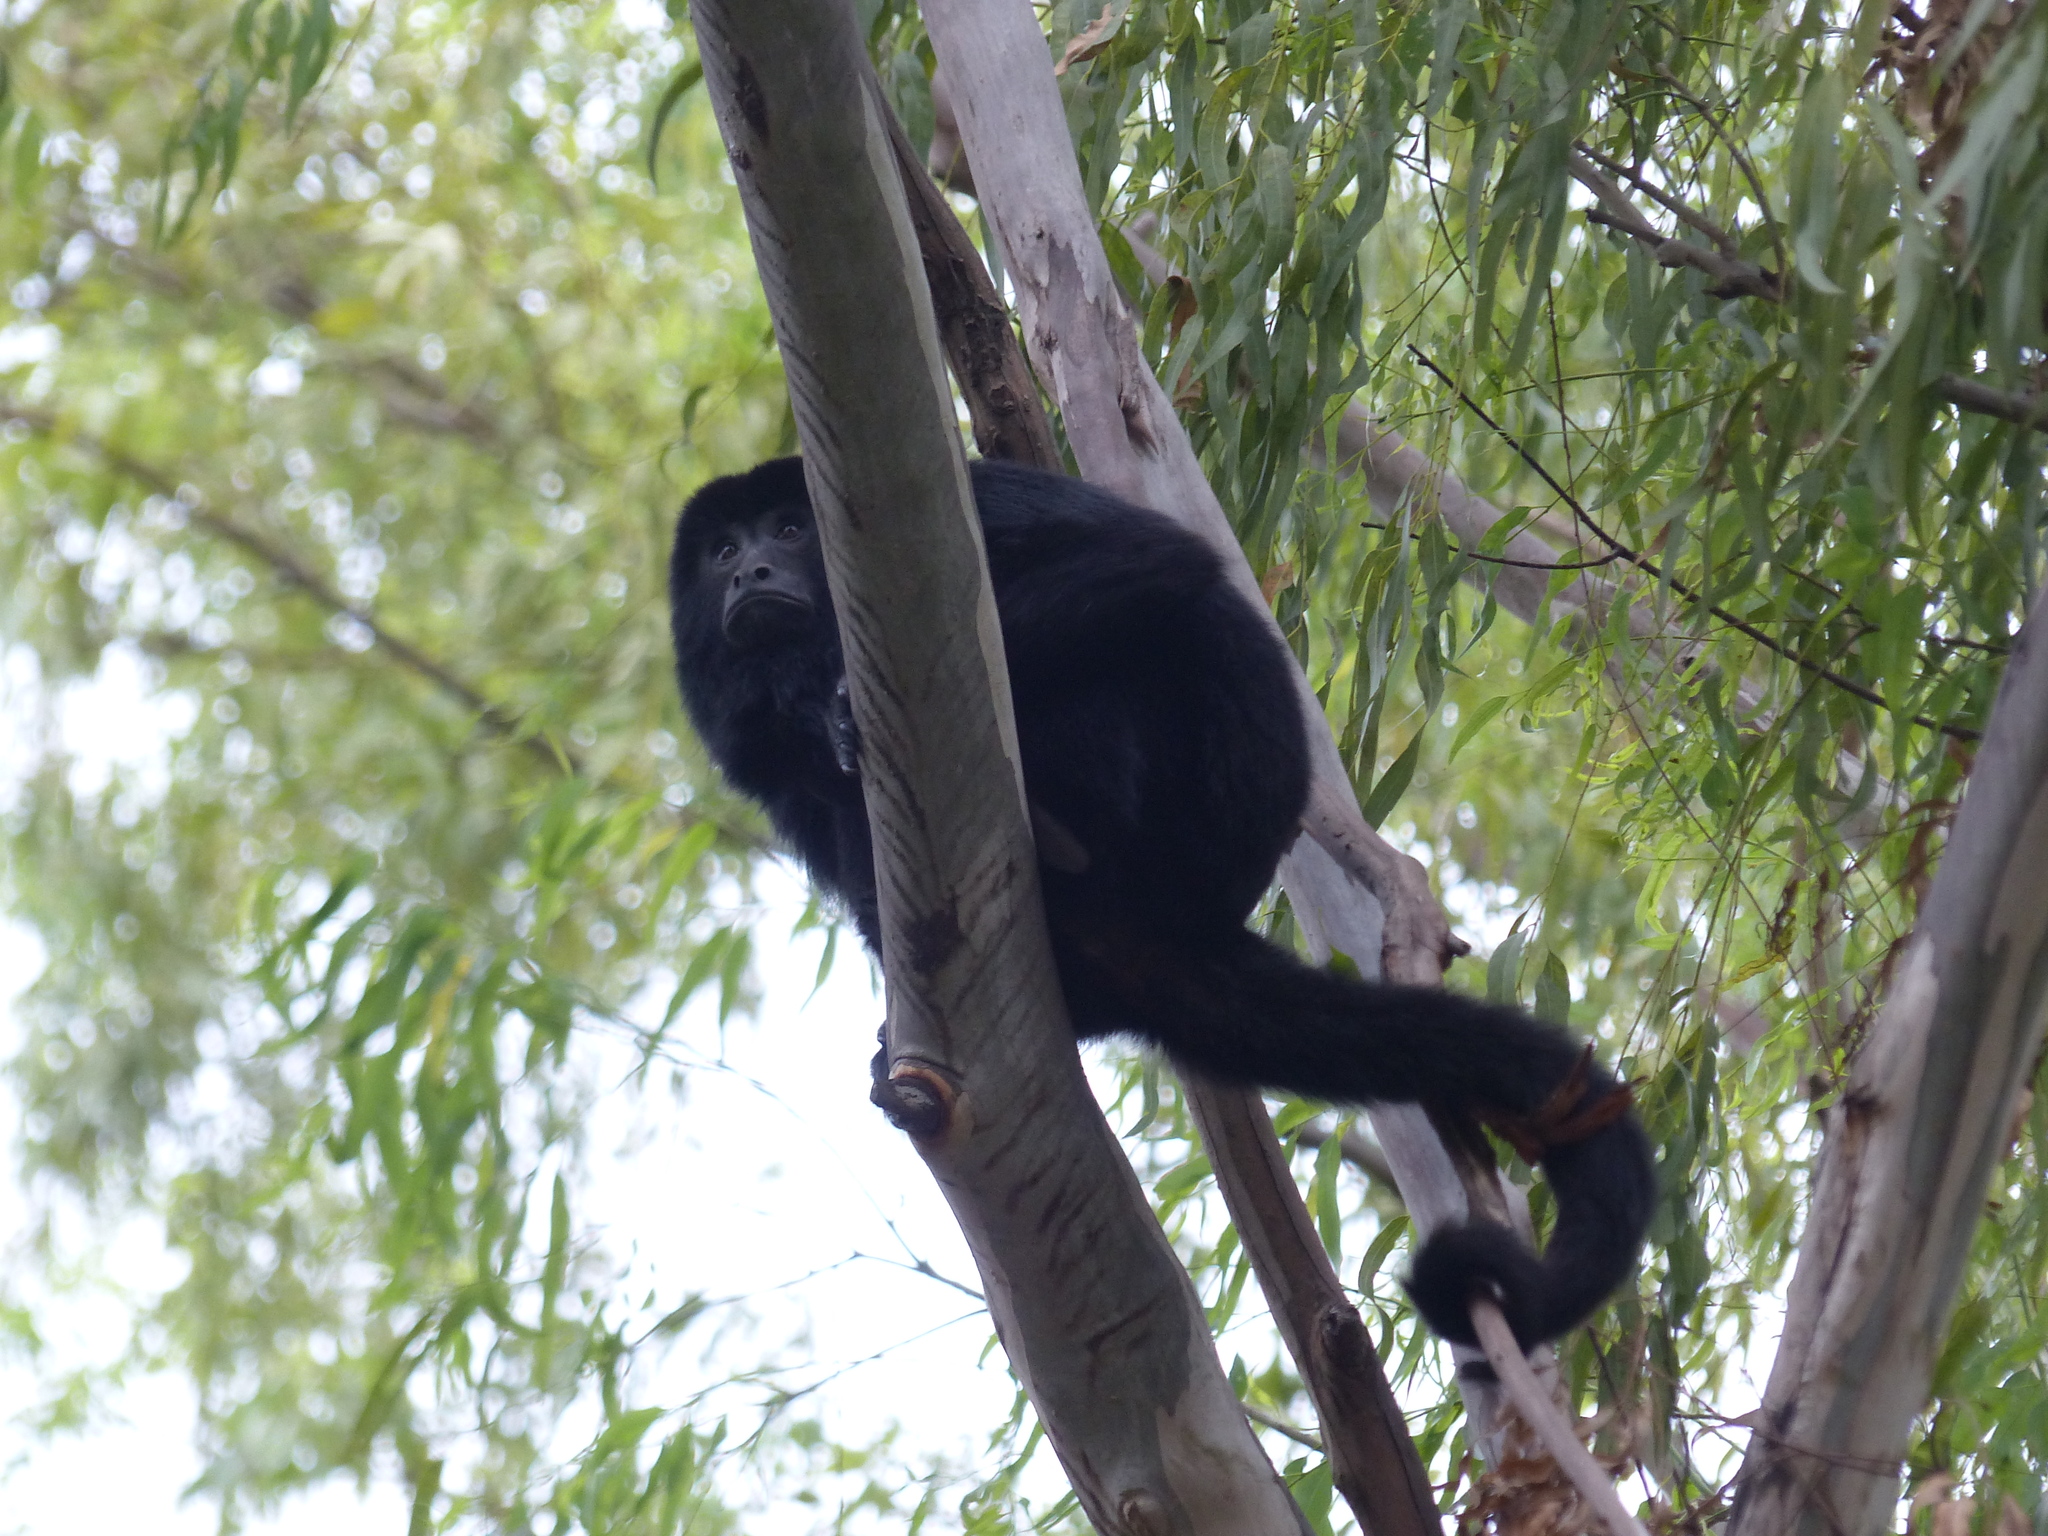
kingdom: Animalia
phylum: Chordata
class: Mammalia
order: Primates
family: Atelidae
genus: Alouatta
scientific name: Alouatta caraya
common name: Black howler
